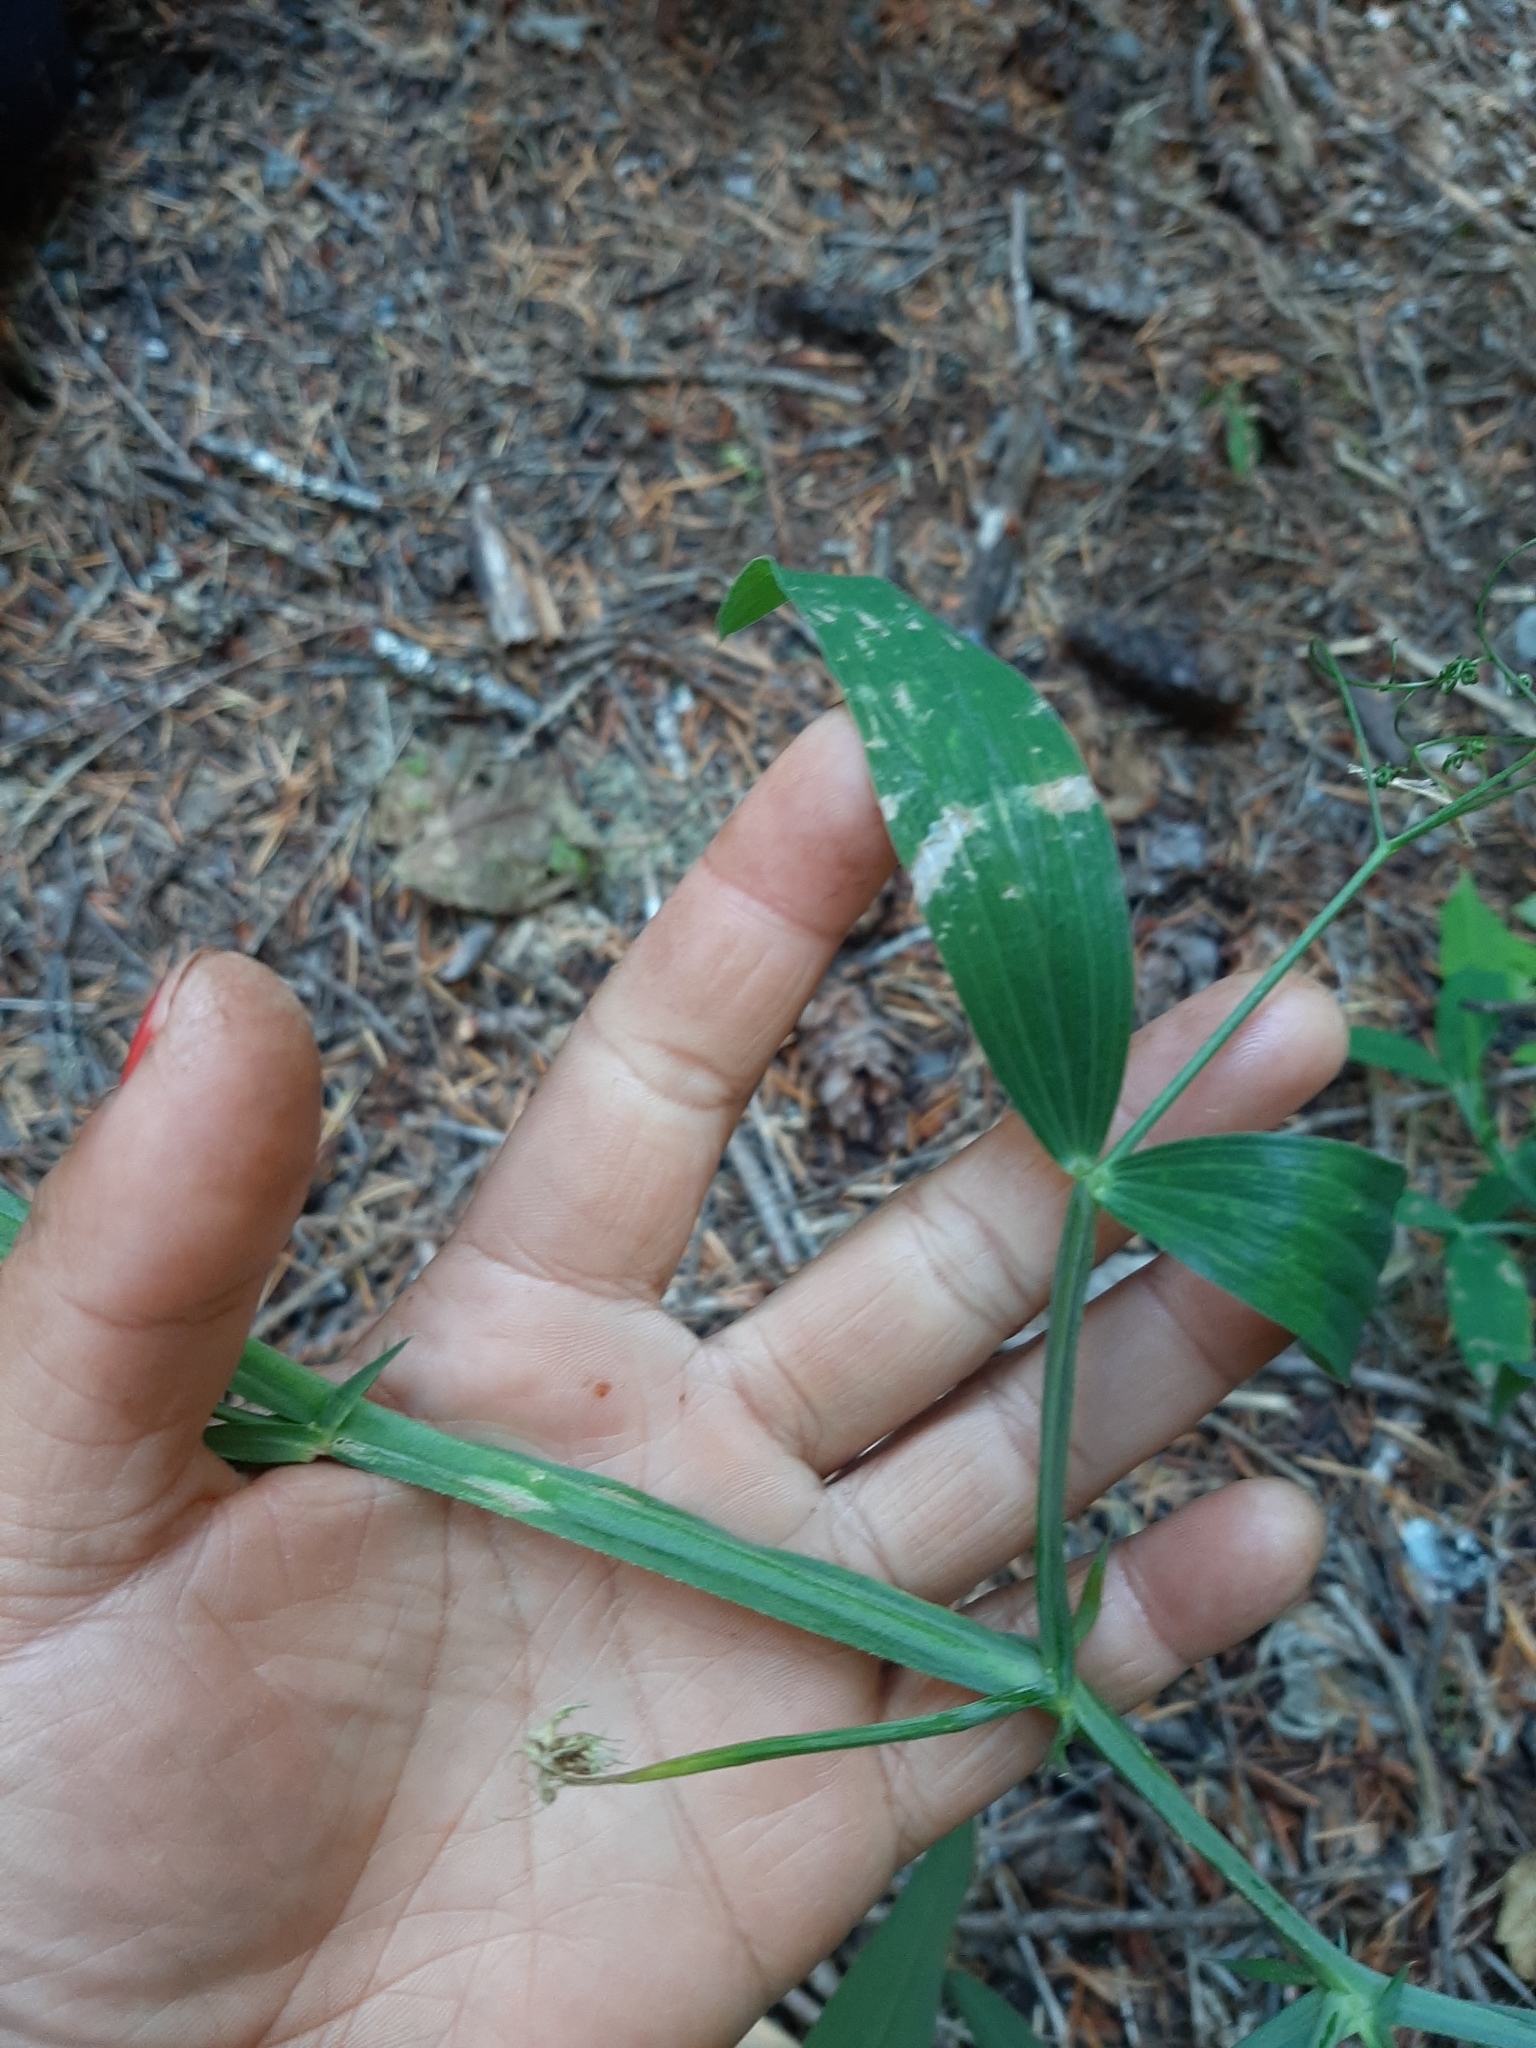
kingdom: Plantae
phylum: Tracheophyta
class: Magnoliopsida
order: Fabales
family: Fabaceae
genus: Lathyrus
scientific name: Lathyrus latifolius
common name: Perennial pea
